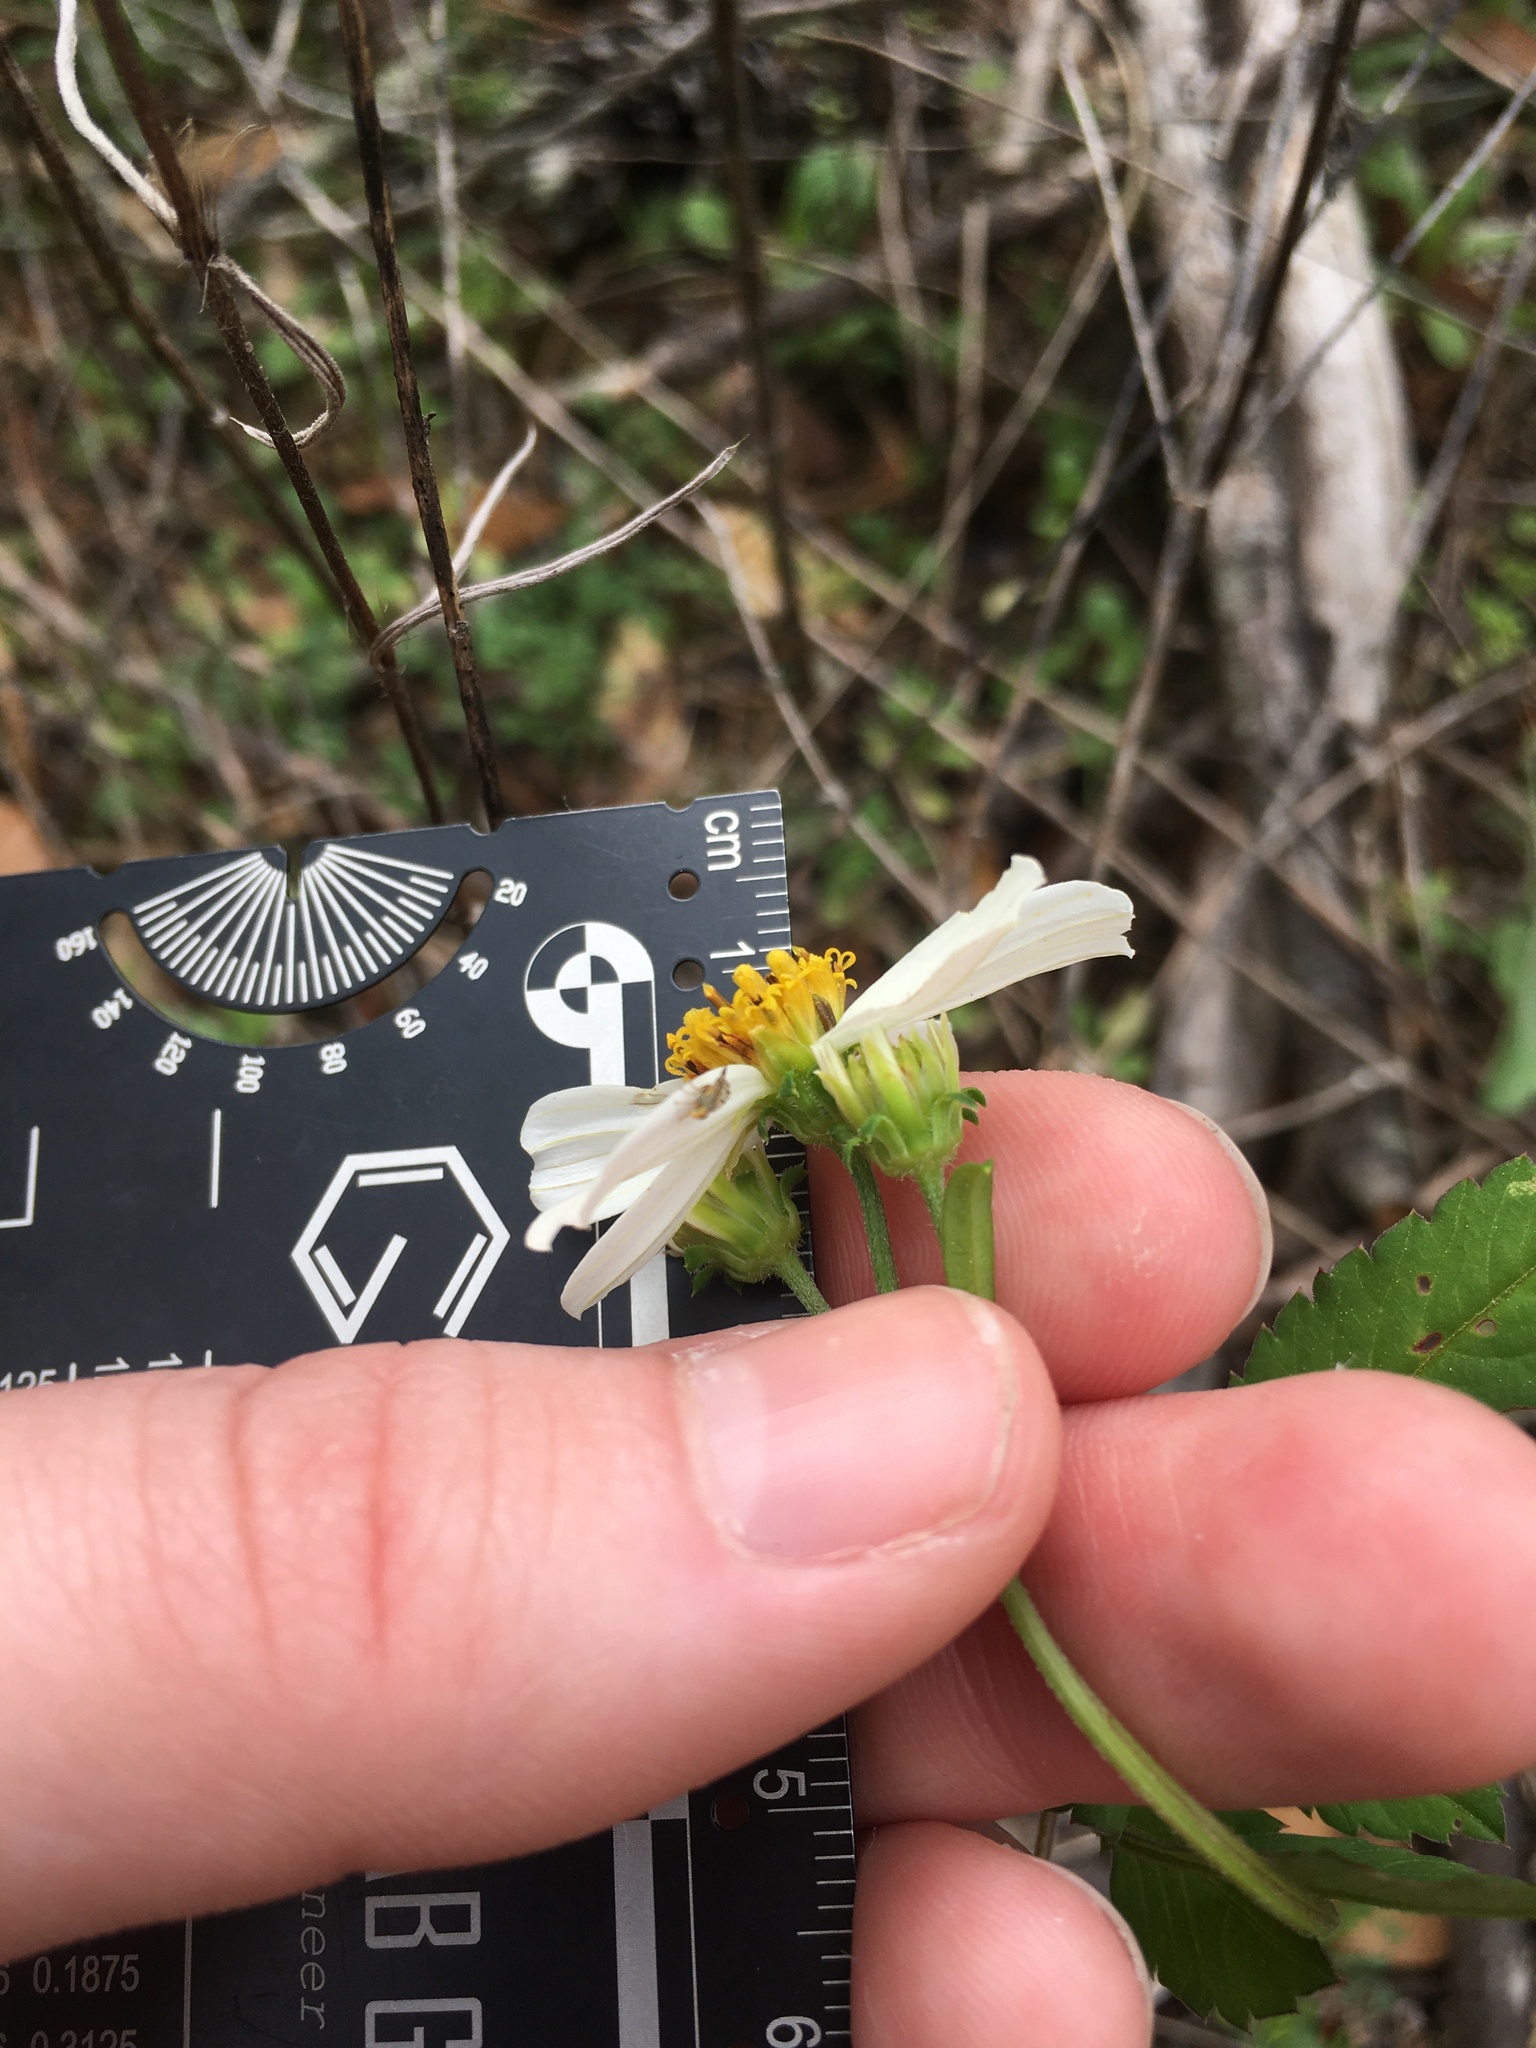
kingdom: Plantae
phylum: Tracheophyta
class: Magnoliopsida
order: Asterales
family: Asteraceae
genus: Bidens
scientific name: Bidens alba
